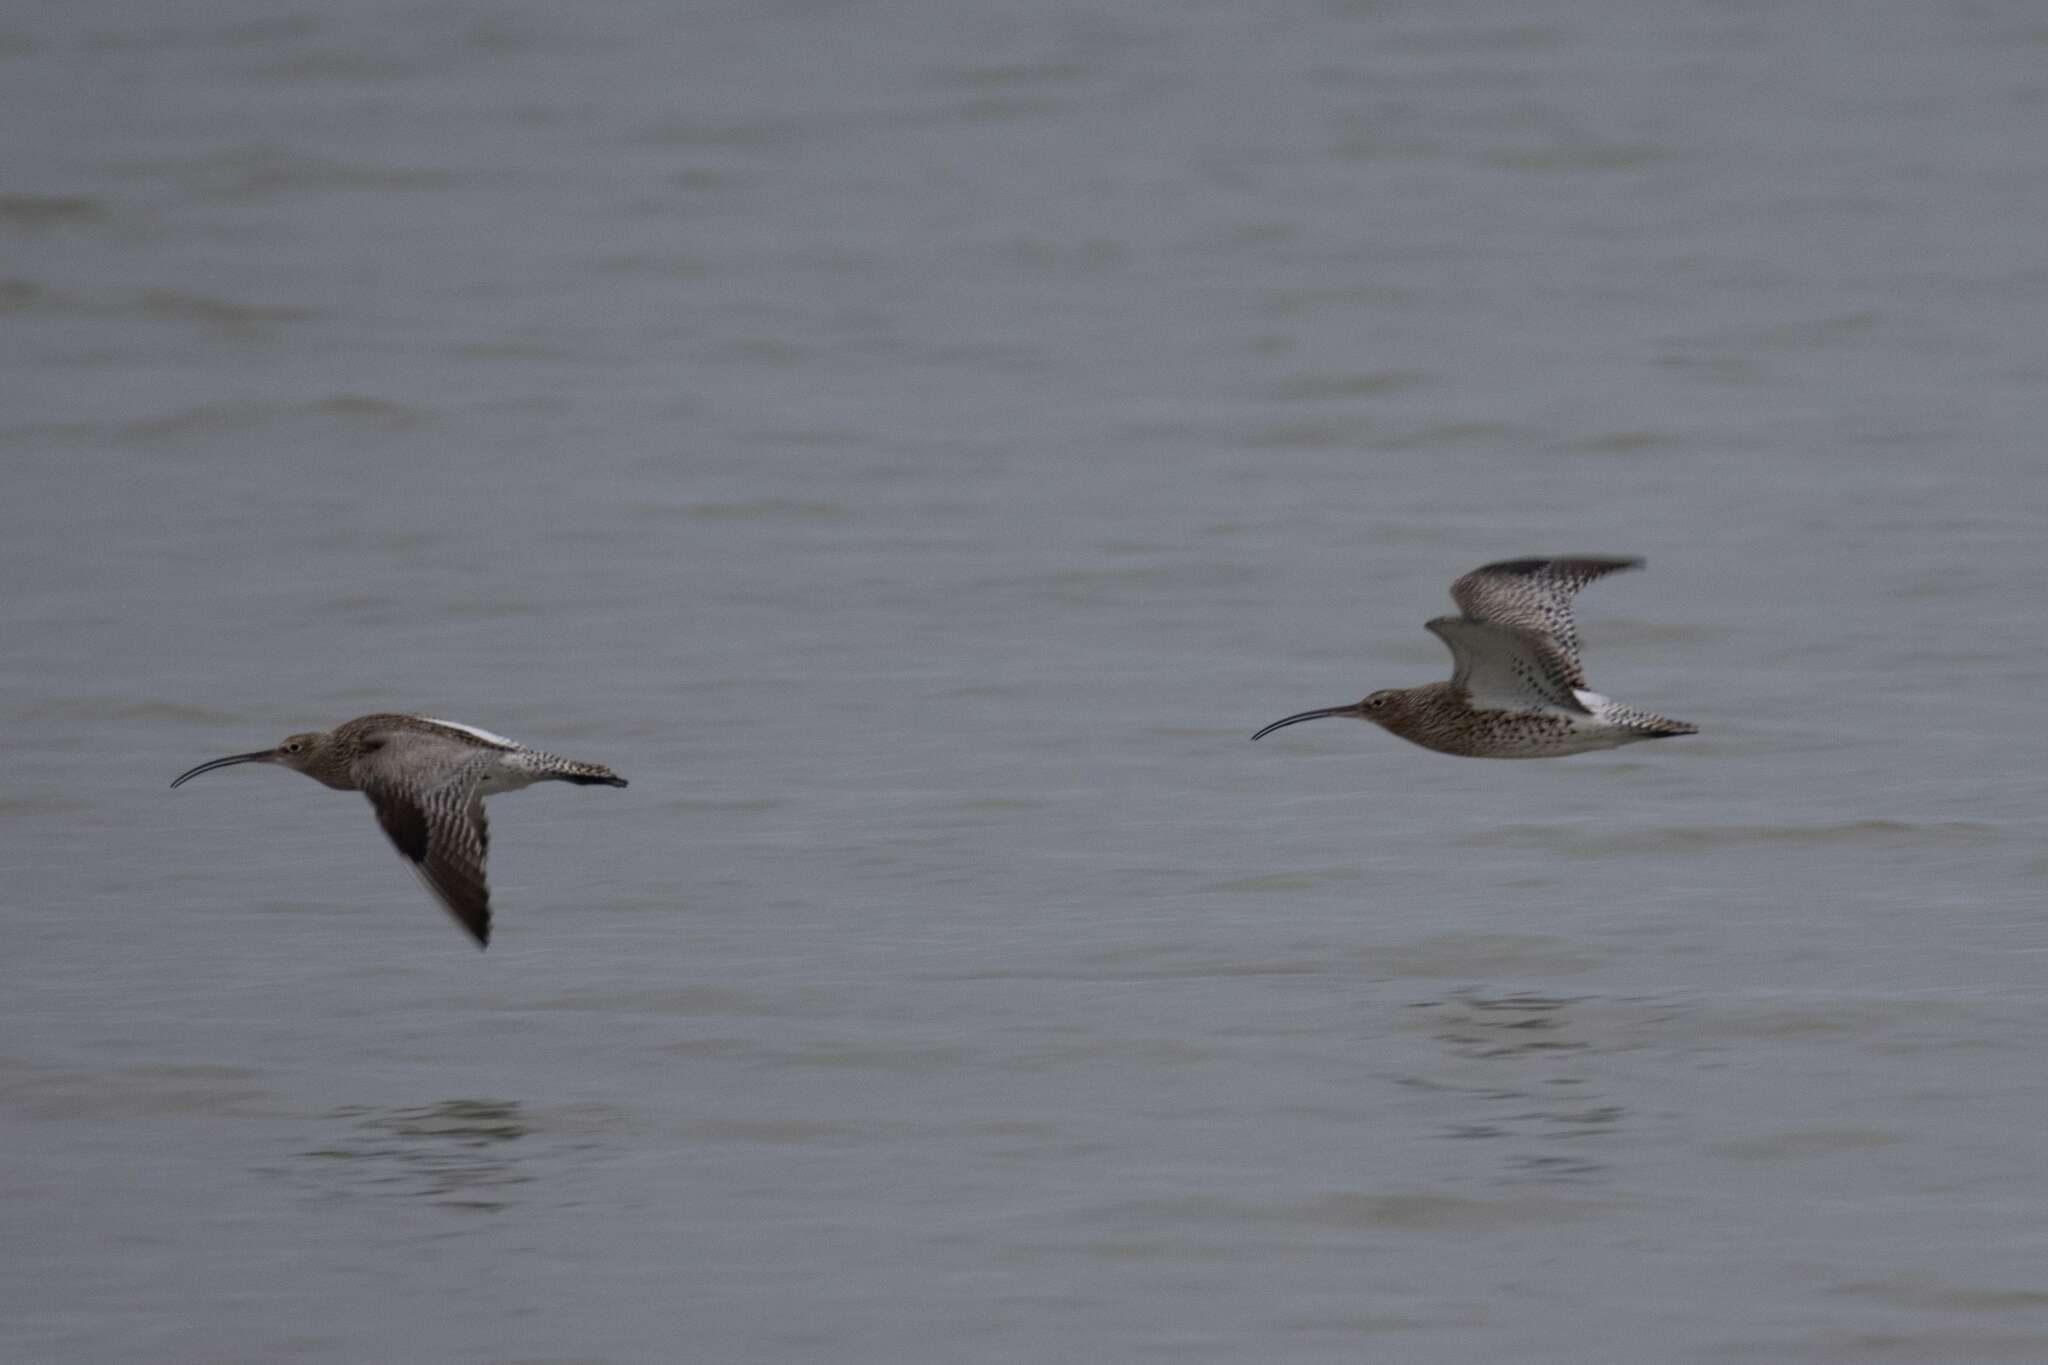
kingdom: Animalia
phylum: Chordata
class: Aves
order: Charadriiformes
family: Scolopacidae
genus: Numenius
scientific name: Numenius arquata
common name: Eurasian curlew
